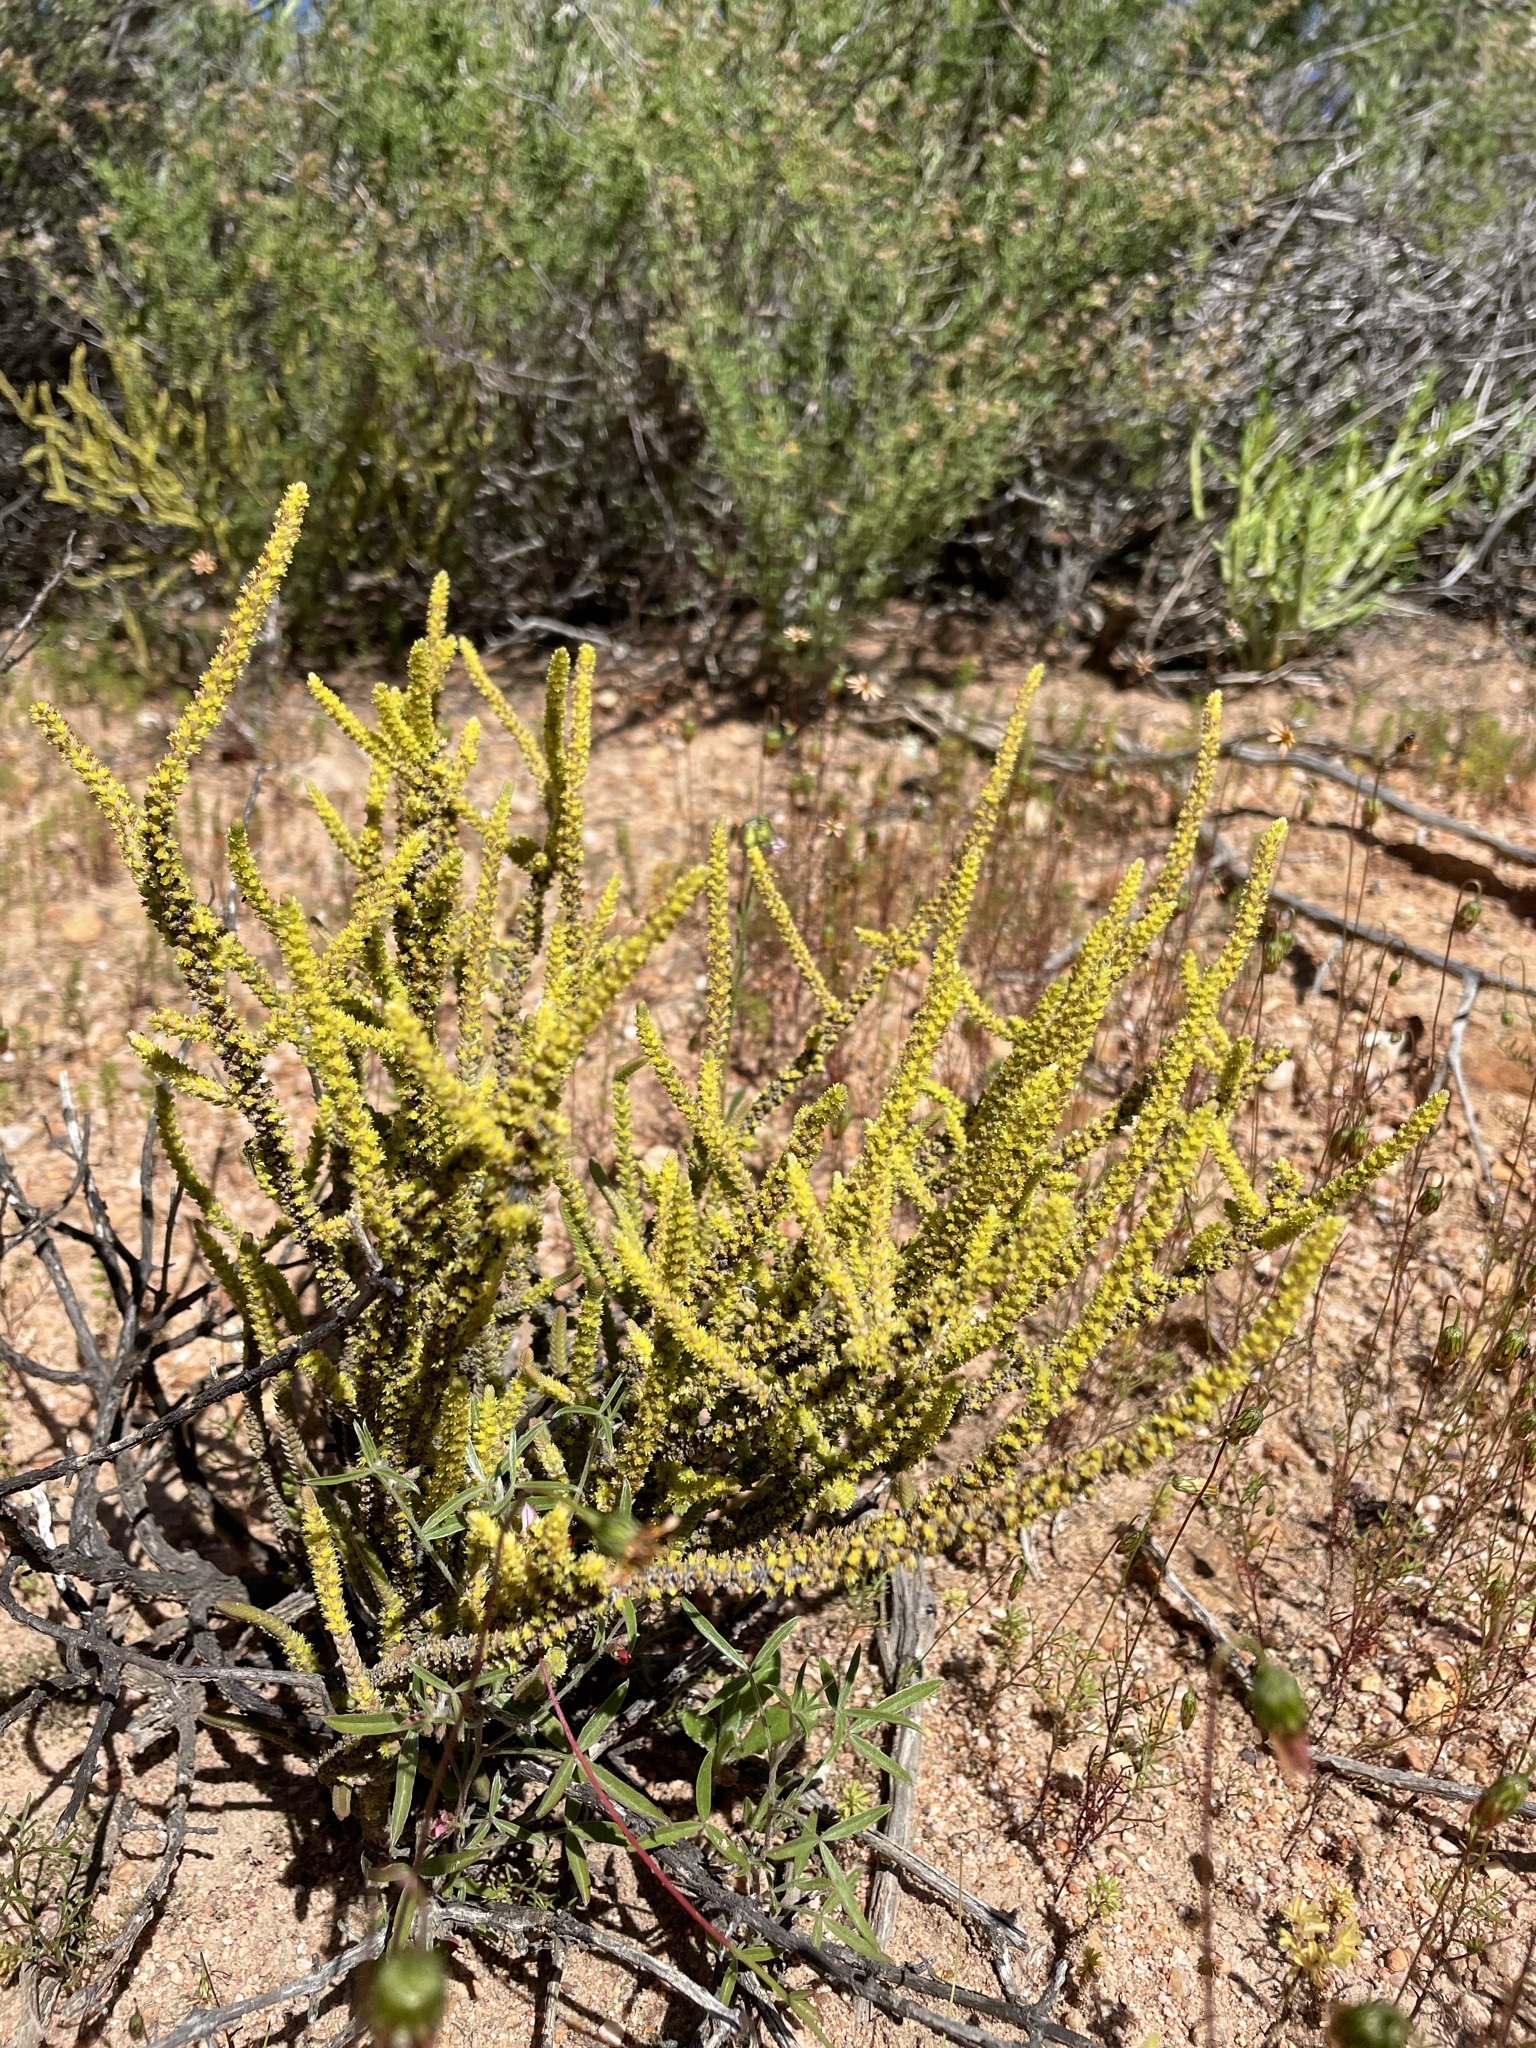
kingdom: Plantae
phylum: Tracheophyta
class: Magnoliopsida
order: Saxifragales
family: Crassulaceae
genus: Crassula
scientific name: Crassula muscosa
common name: Toy-cypress
